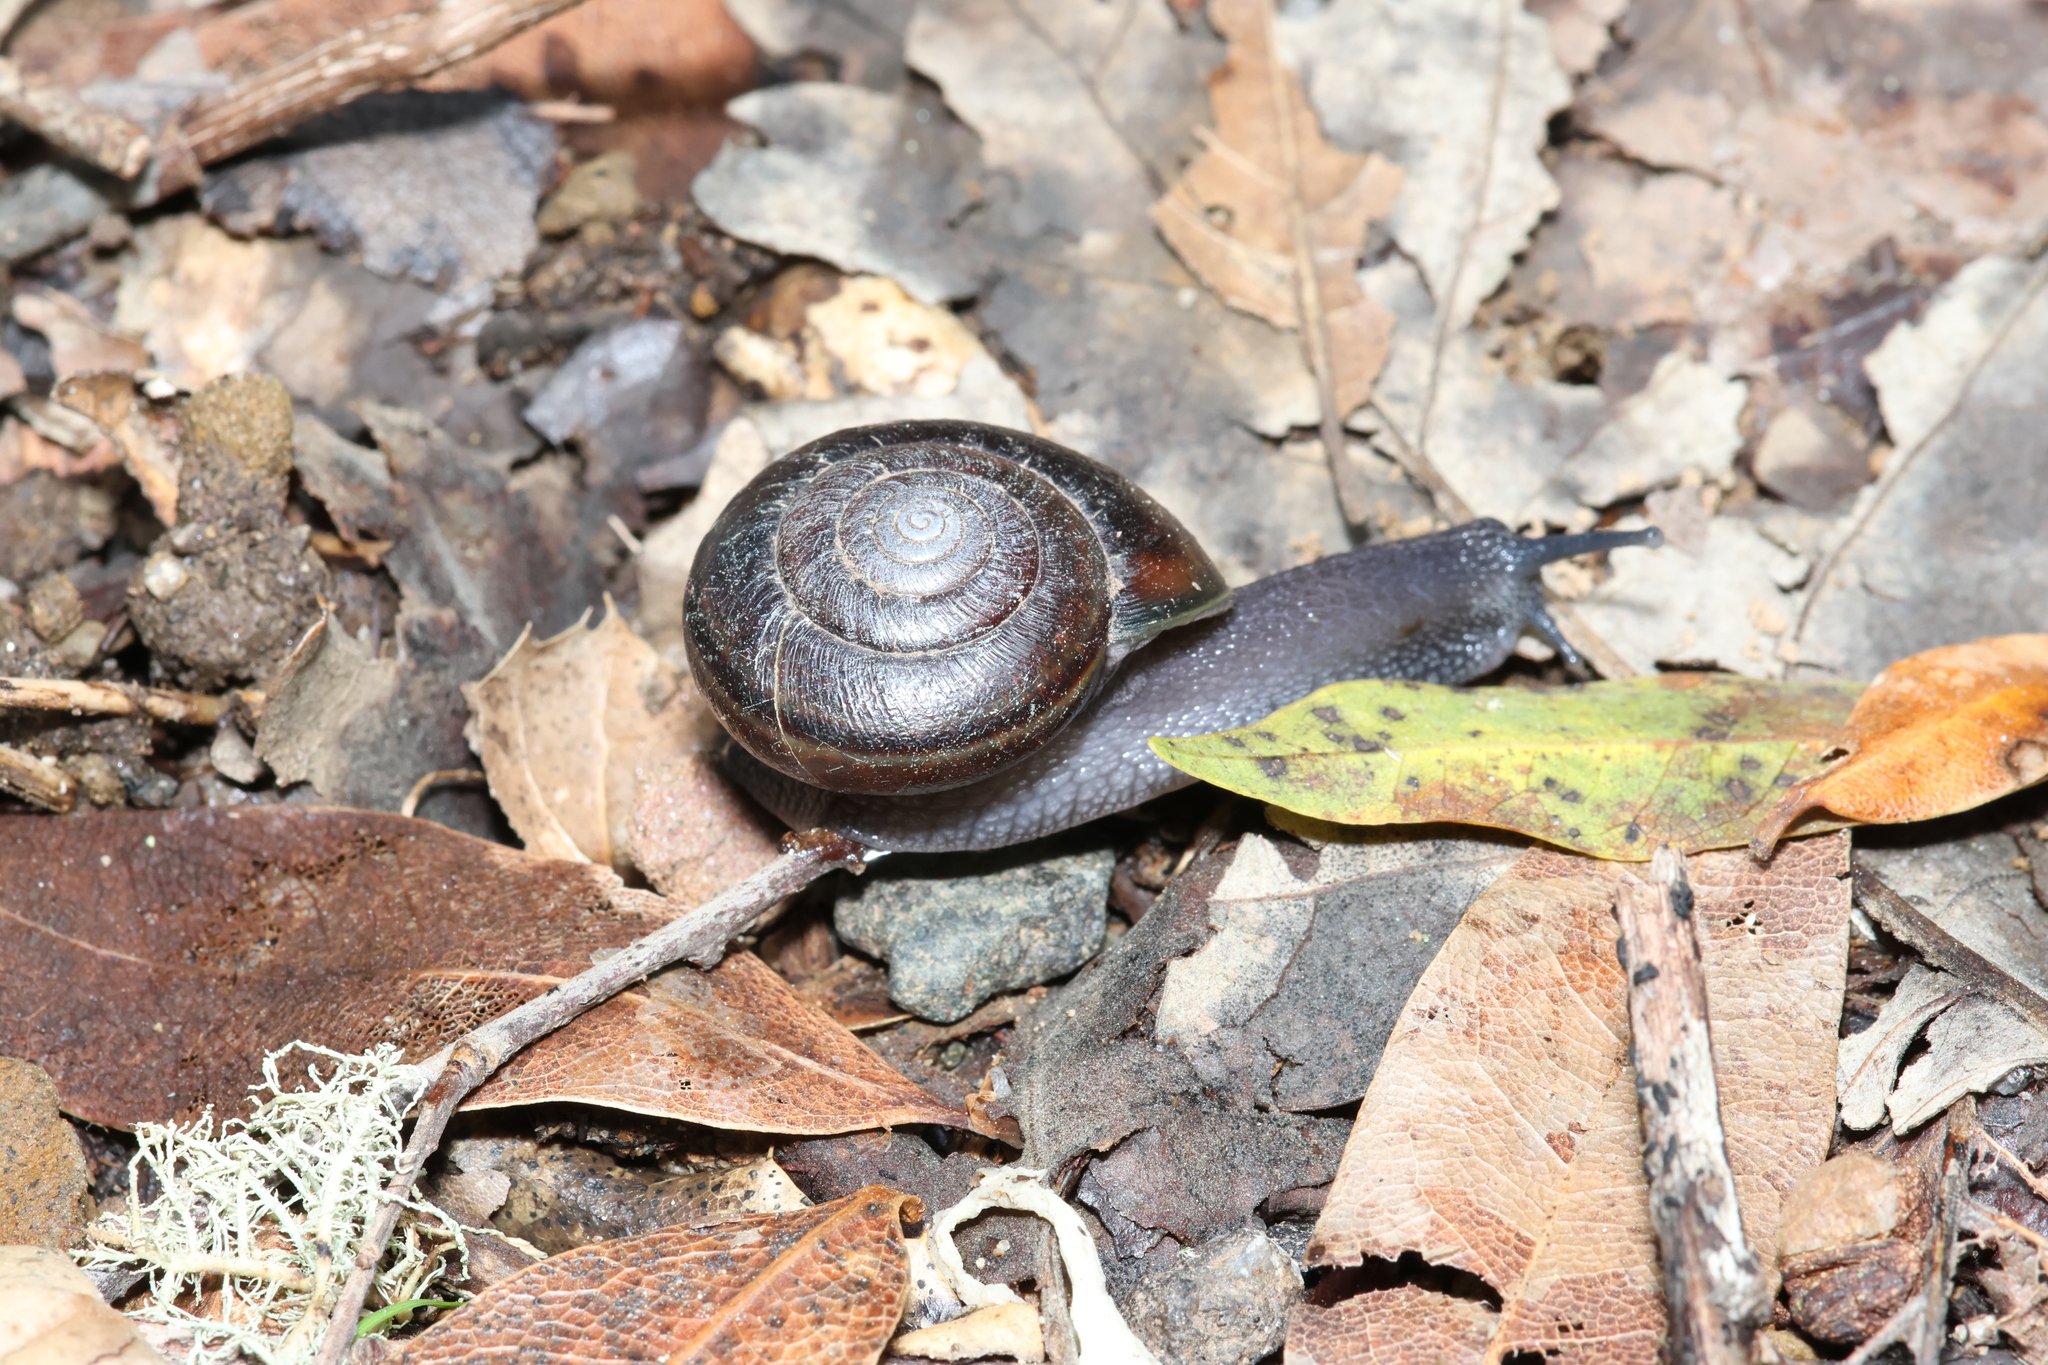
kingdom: Animalia
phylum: Mollusca
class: Gastropoda
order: Stylommatophora
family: Xanthonychidae
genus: Helminthoglypta
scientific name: Helminthoglypta umbilicata
